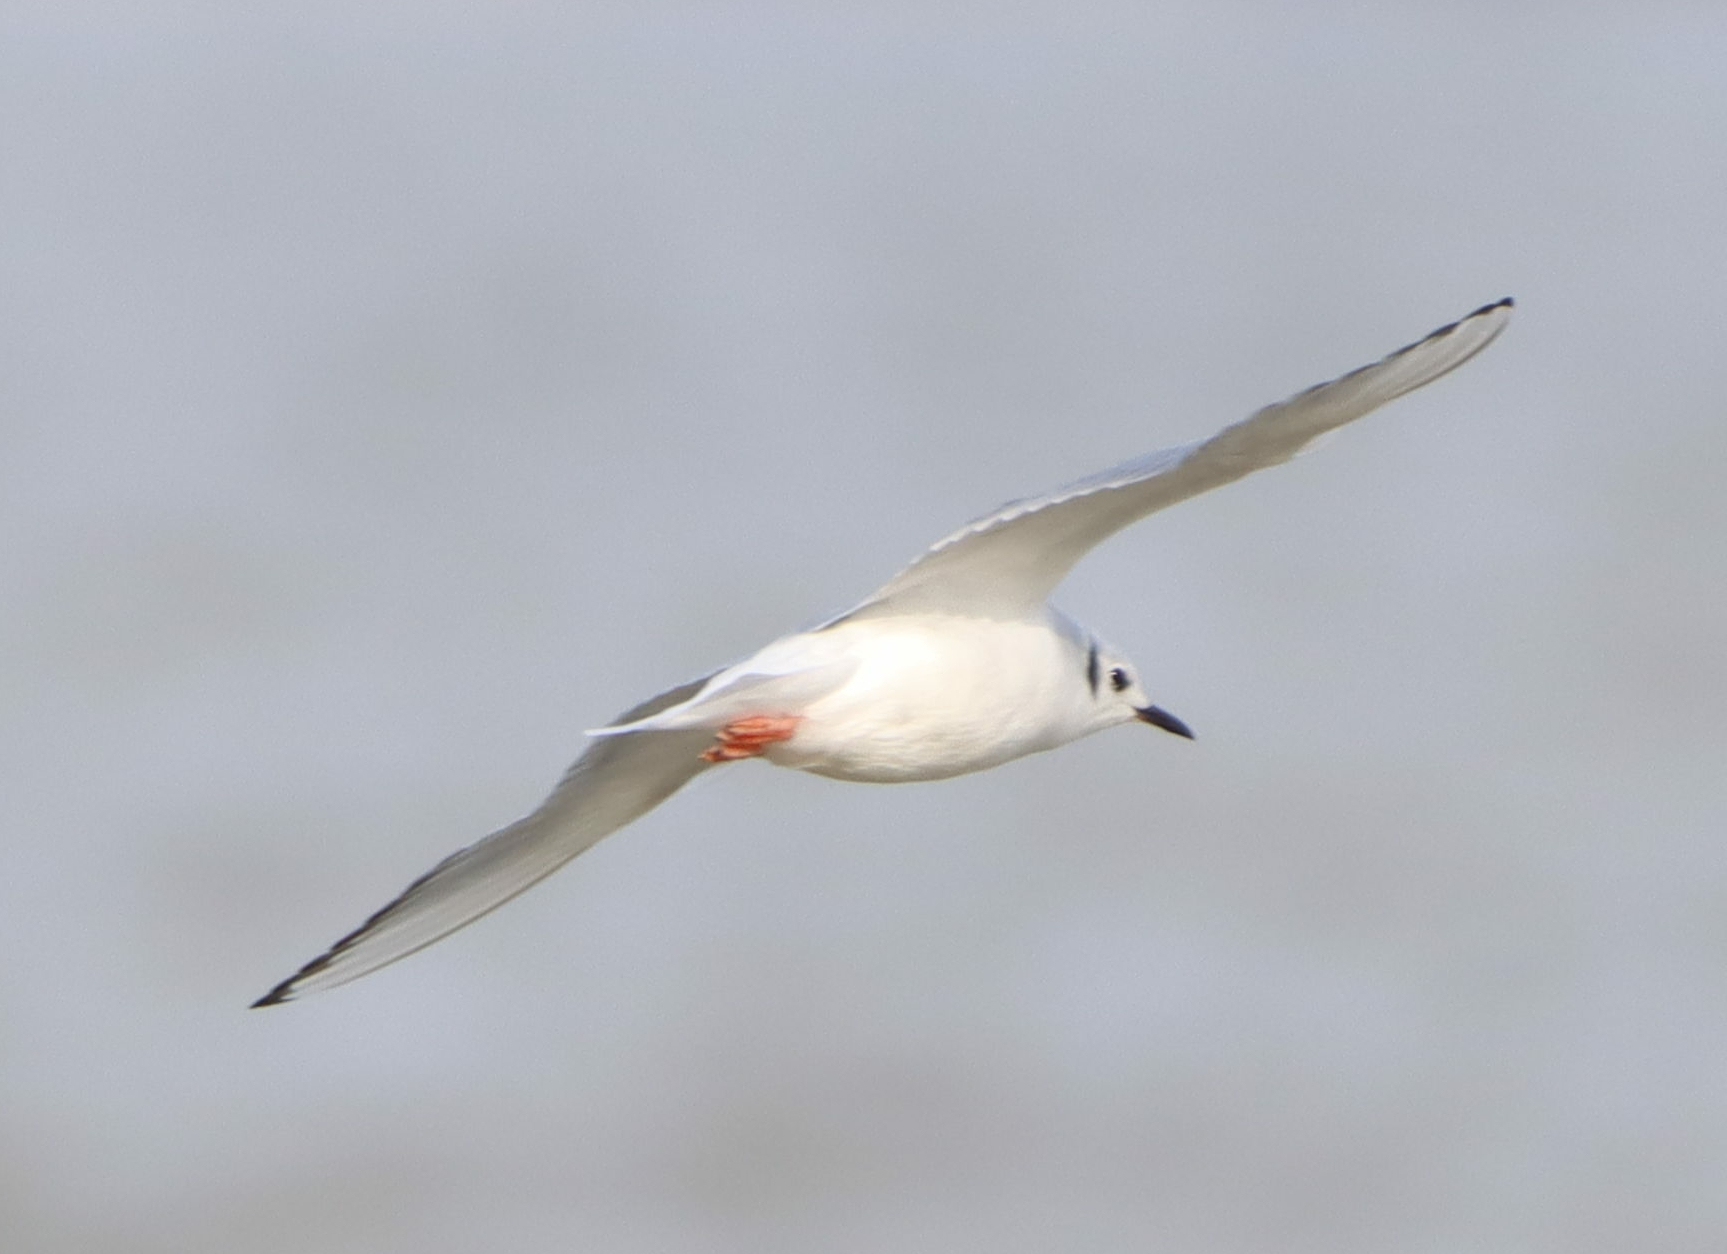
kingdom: Animalia
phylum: Chordata
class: Aves
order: Charadriiformes
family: Laridae
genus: Chroicocephalus
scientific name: Chroicocephalus philadelphia
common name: Bonaparte's gull
